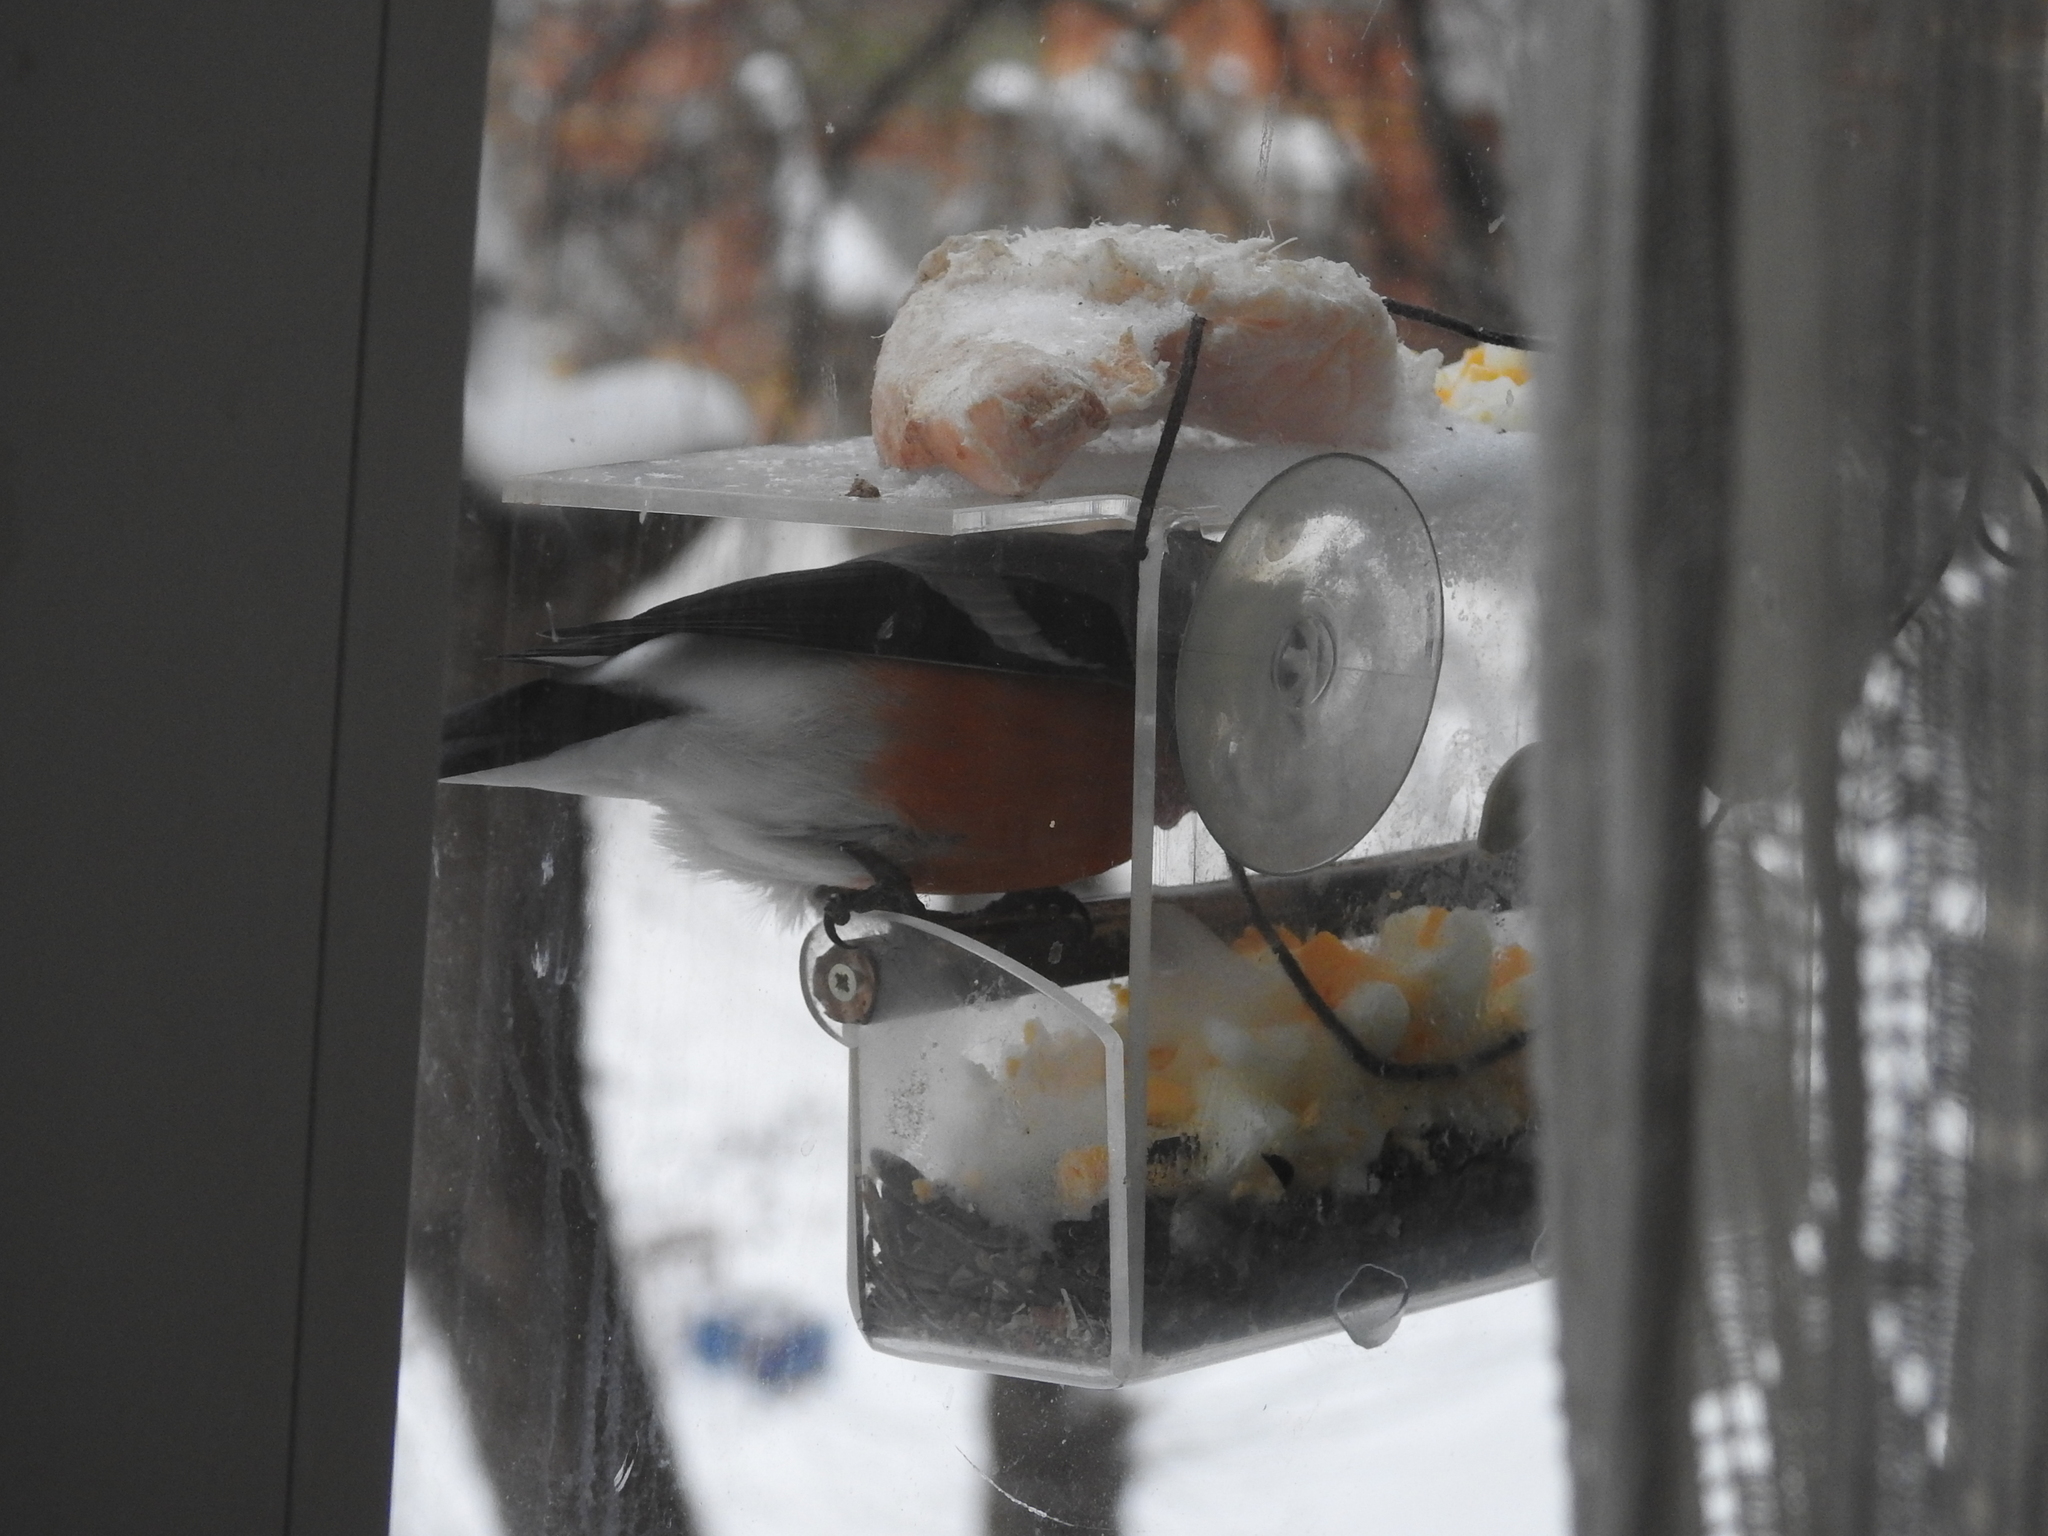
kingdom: Animalia
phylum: Chordata
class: Aves
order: Passeriformes
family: Fringillidae
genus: Pyrrhula
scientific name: Pyrrhula pyrrhula
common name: Eurasian bullfinch
